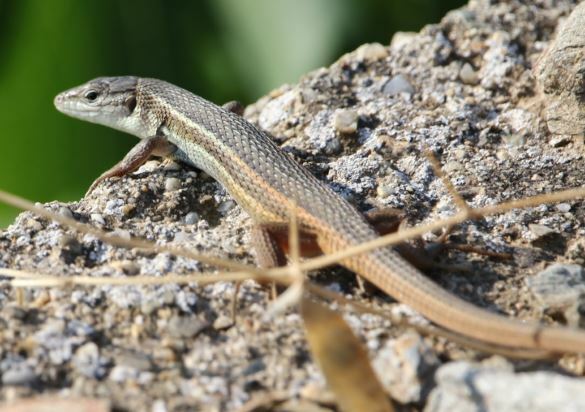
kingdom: Animalia
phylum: Chordata
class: Squamata
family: Lacertidae
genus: Psammodromus
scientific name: Psammodromus algirus
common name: Algerian psammodromus
